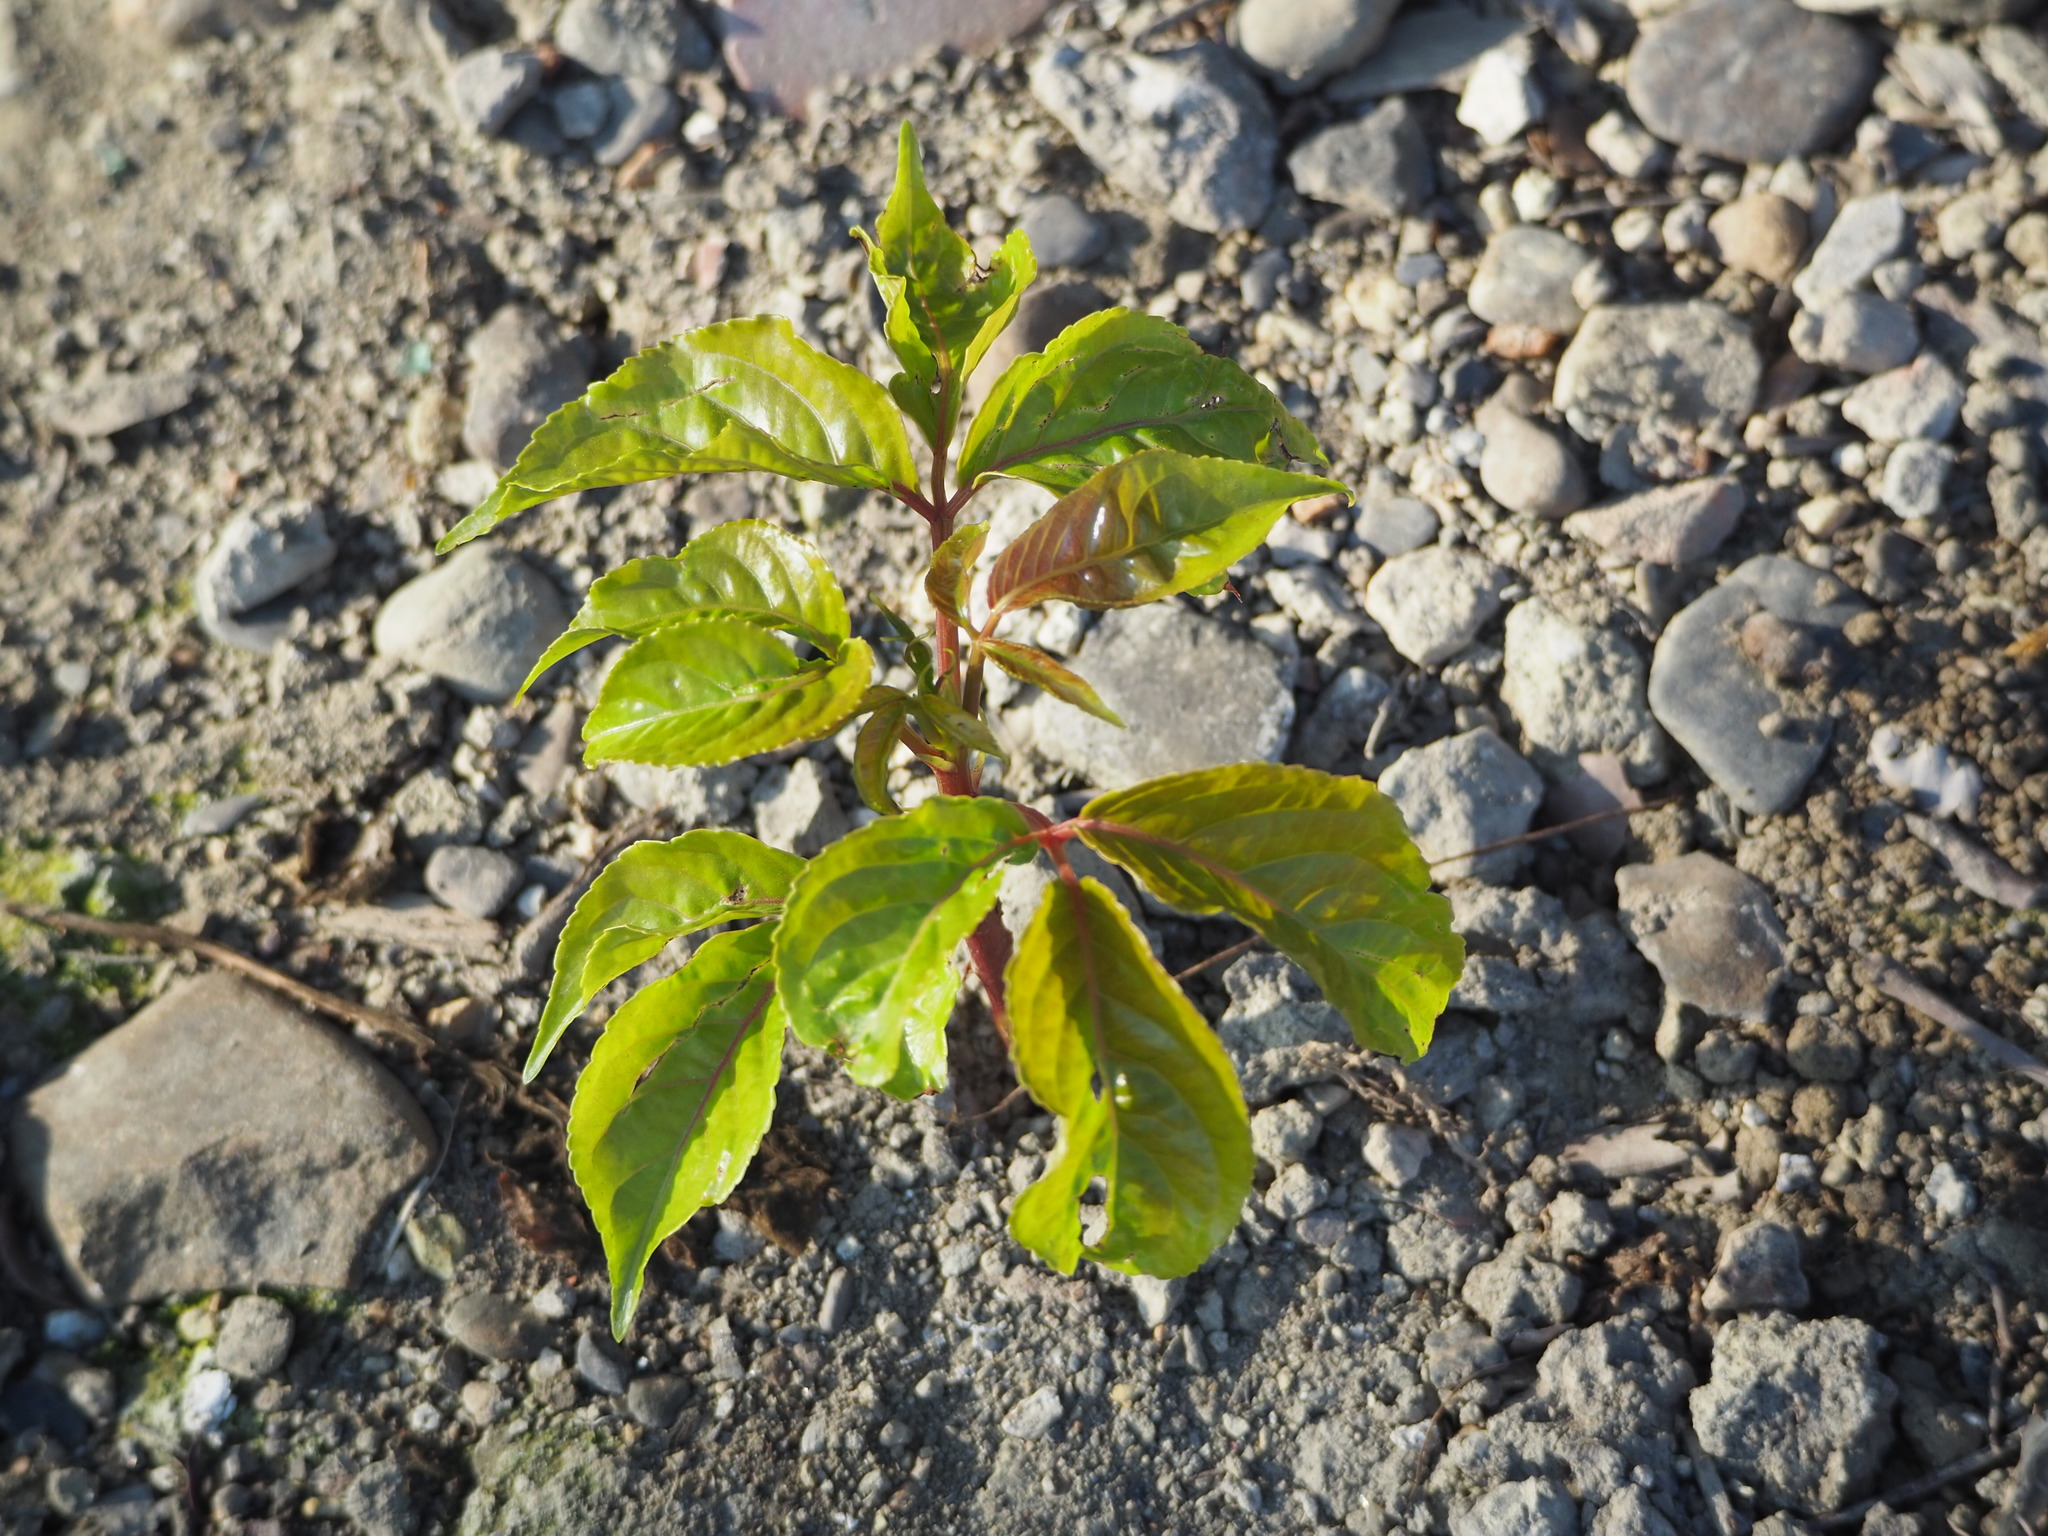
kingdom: Plantae
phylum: Tracheophyta
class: Magnoliopsida
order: Malpighiales
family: Phyllanthaceae
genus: Bischofia
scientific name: Bischofia javanica
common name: Javanese bishopwood
